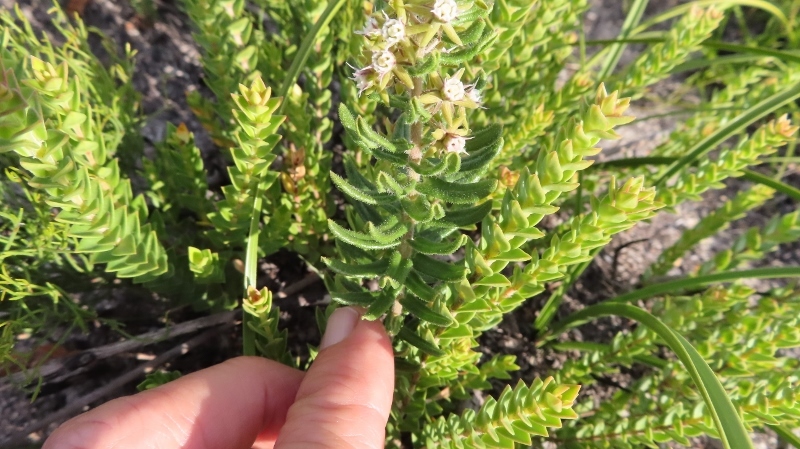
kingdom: Plantae
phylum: Tracheophyta
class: Magnoliopsida
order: Gentianales
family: Apocynaceae
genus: Aspidoglossum
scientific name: Aspidoglossum heterophyllum
